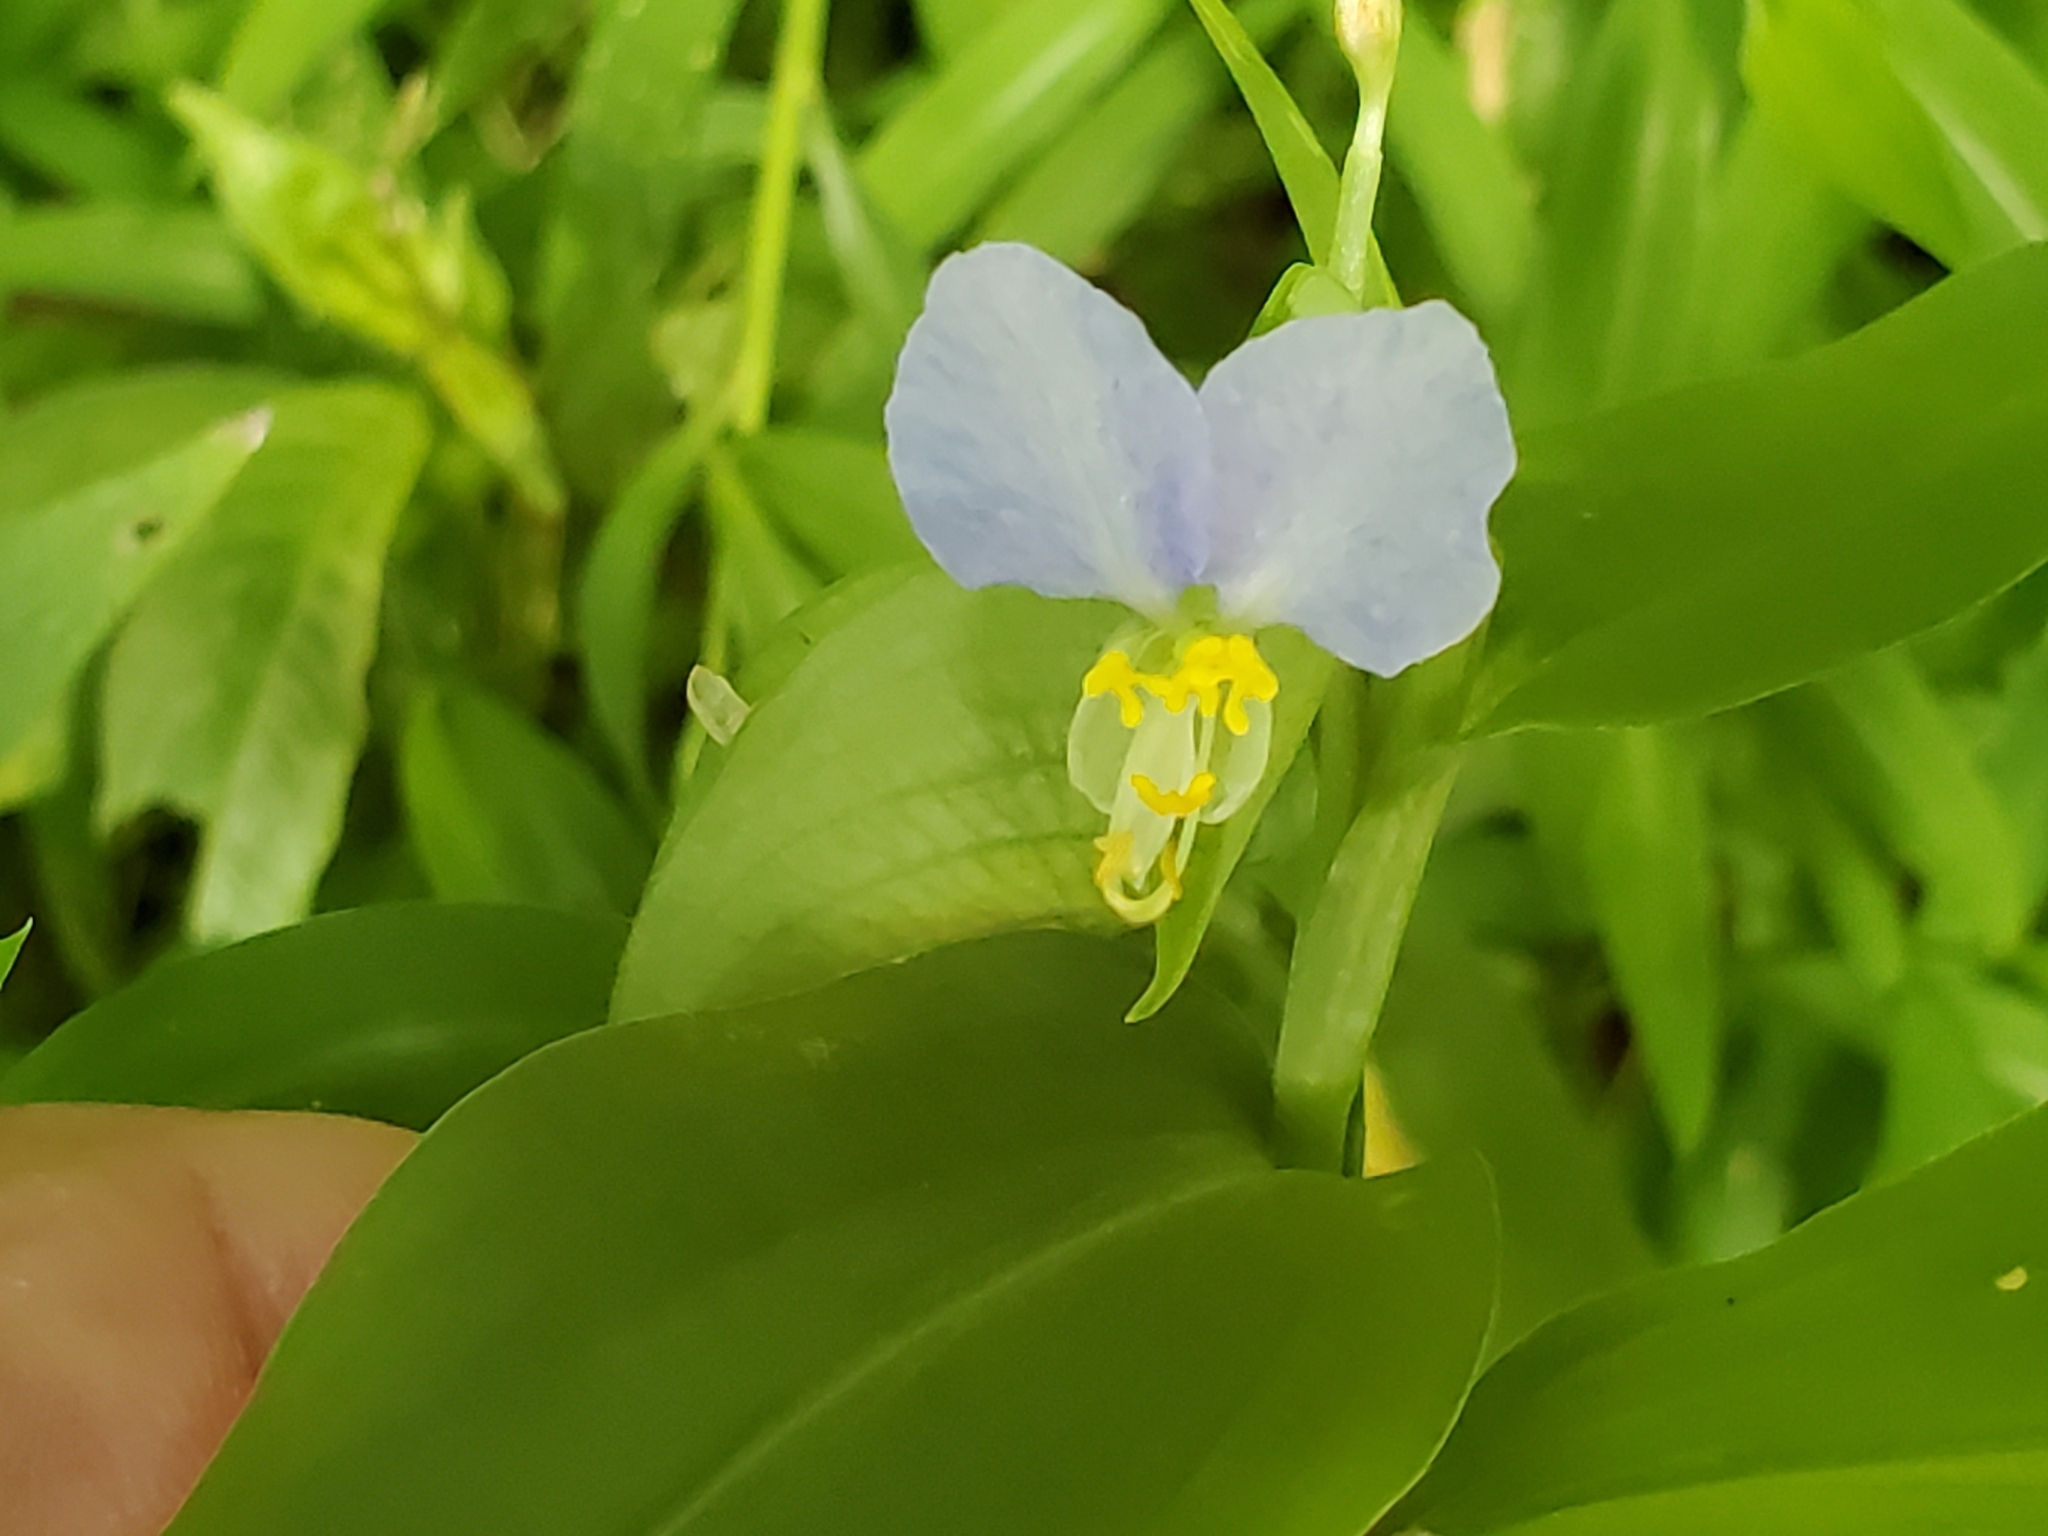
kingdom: Plantae
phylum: Tracheophyta
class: Liliopsida
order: Commelinales
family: Commelinaceae
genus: Commelina
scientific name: Commelina communis
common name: Asiatic dayflower
